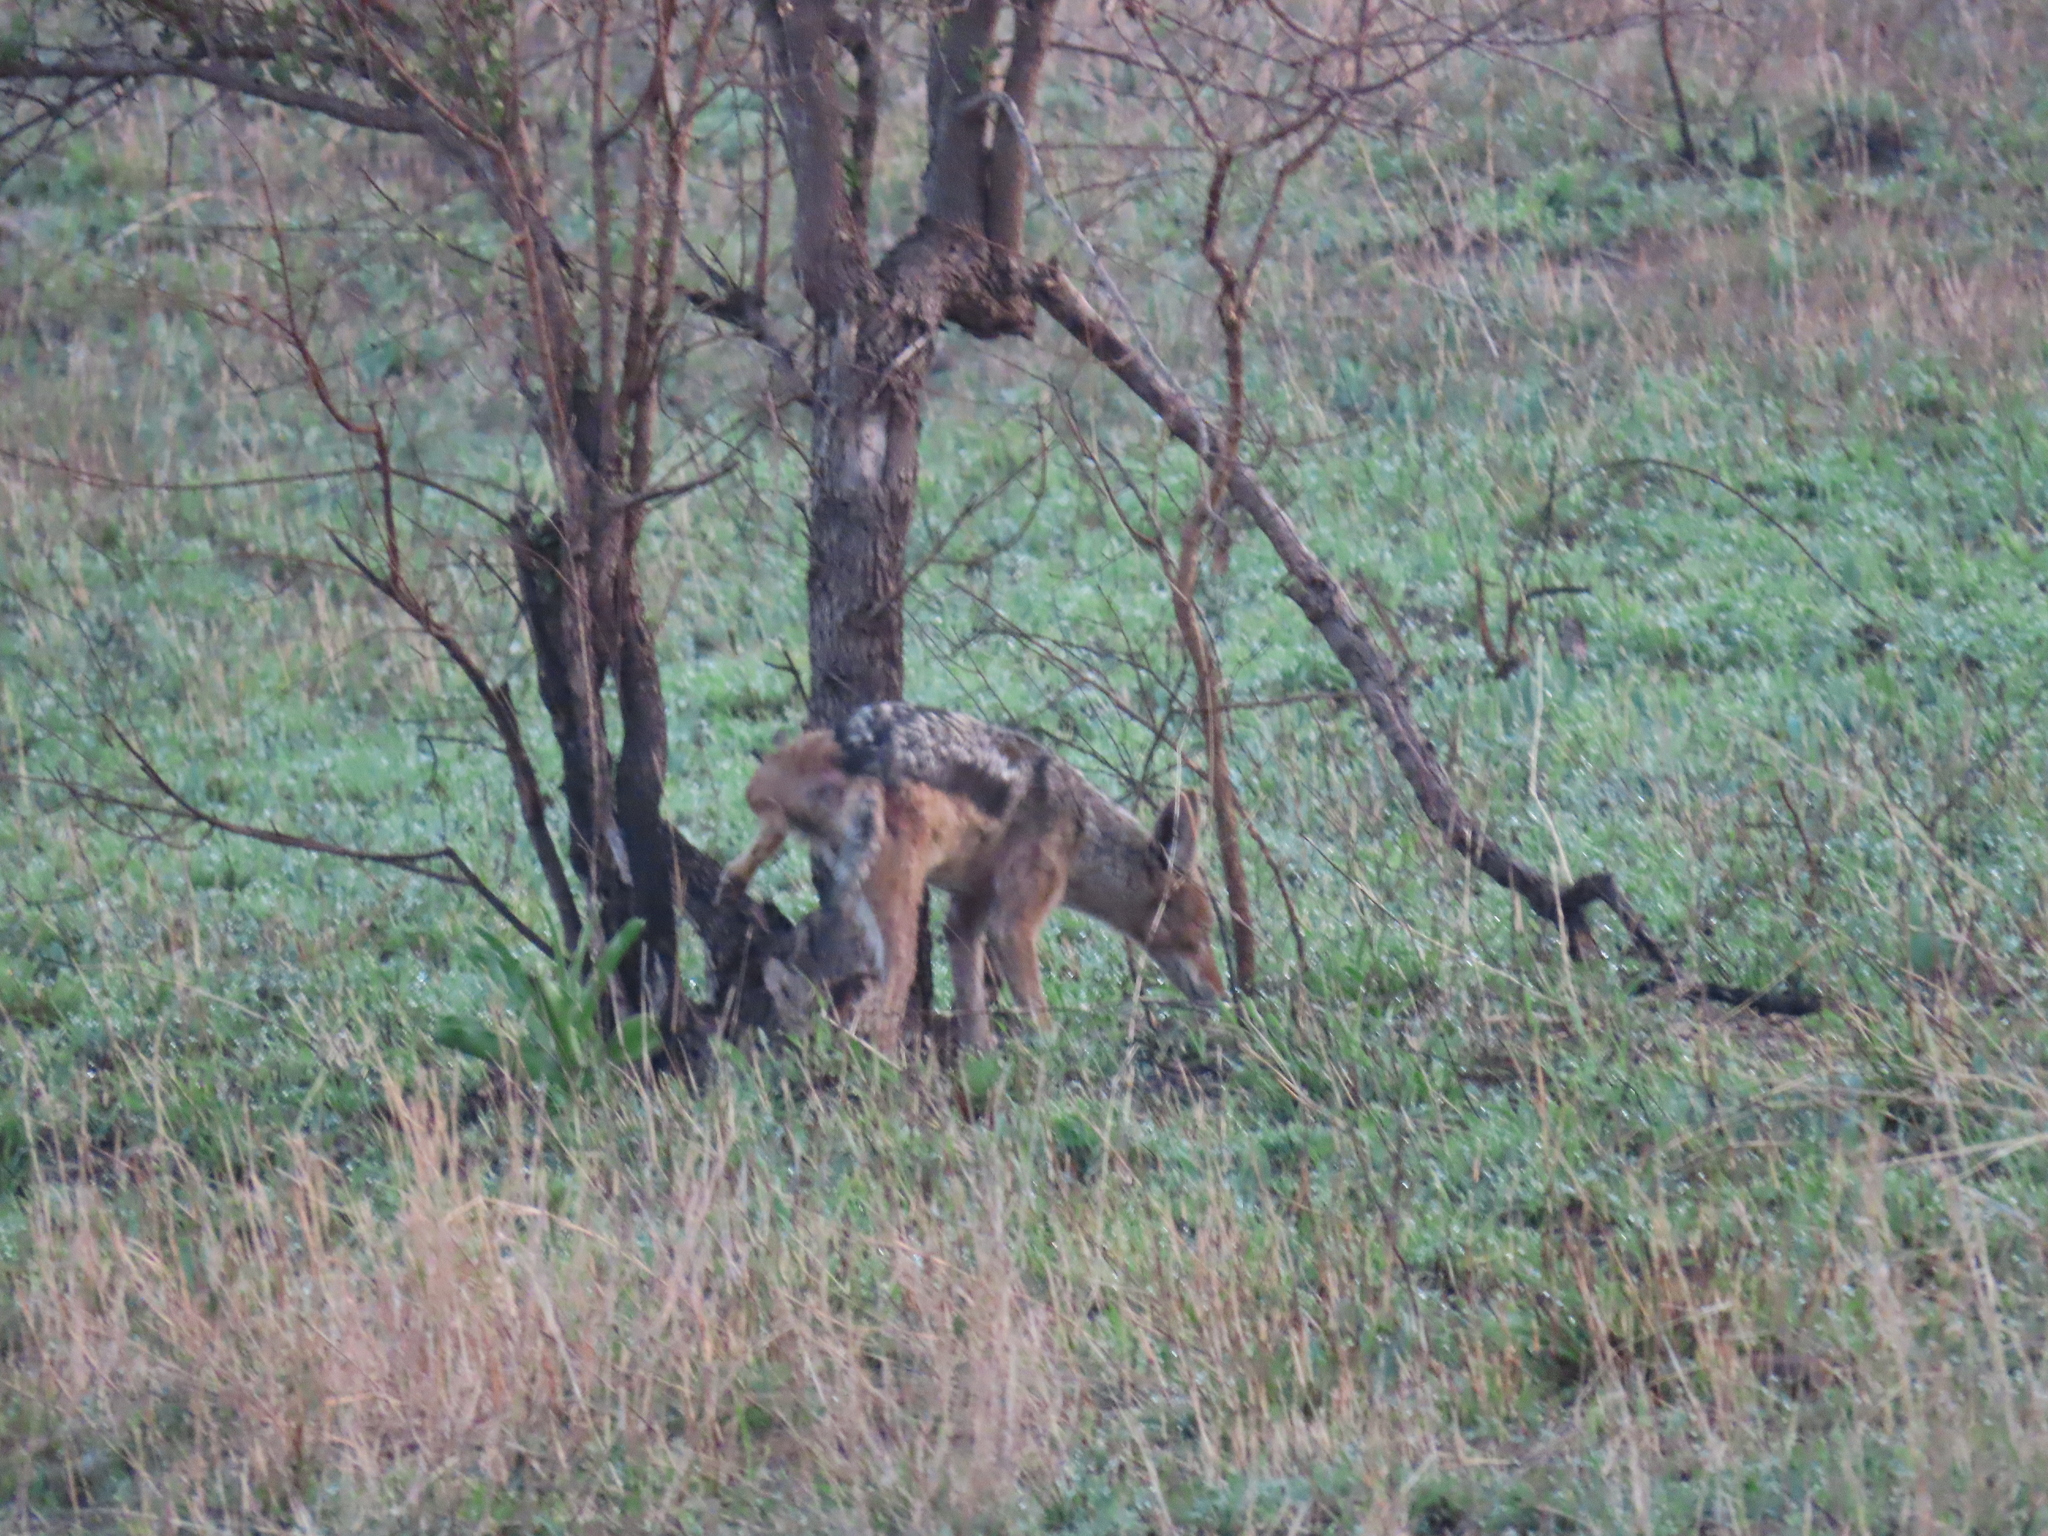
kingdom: Animalia
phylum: Chordata
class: Mammalia
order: Carnivora
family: Canidae
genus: Lupulella
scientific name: Lupulella
